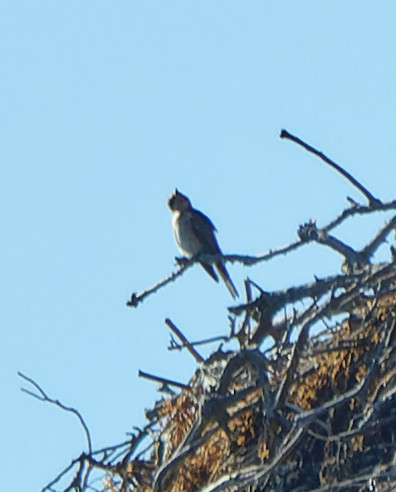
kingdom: Animalia
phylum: Chordata
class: Aves
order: Passeriformes
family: Muscicapidae
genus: Muscicapa
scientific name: Muscicapa striata
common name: Spotted flycatcher
